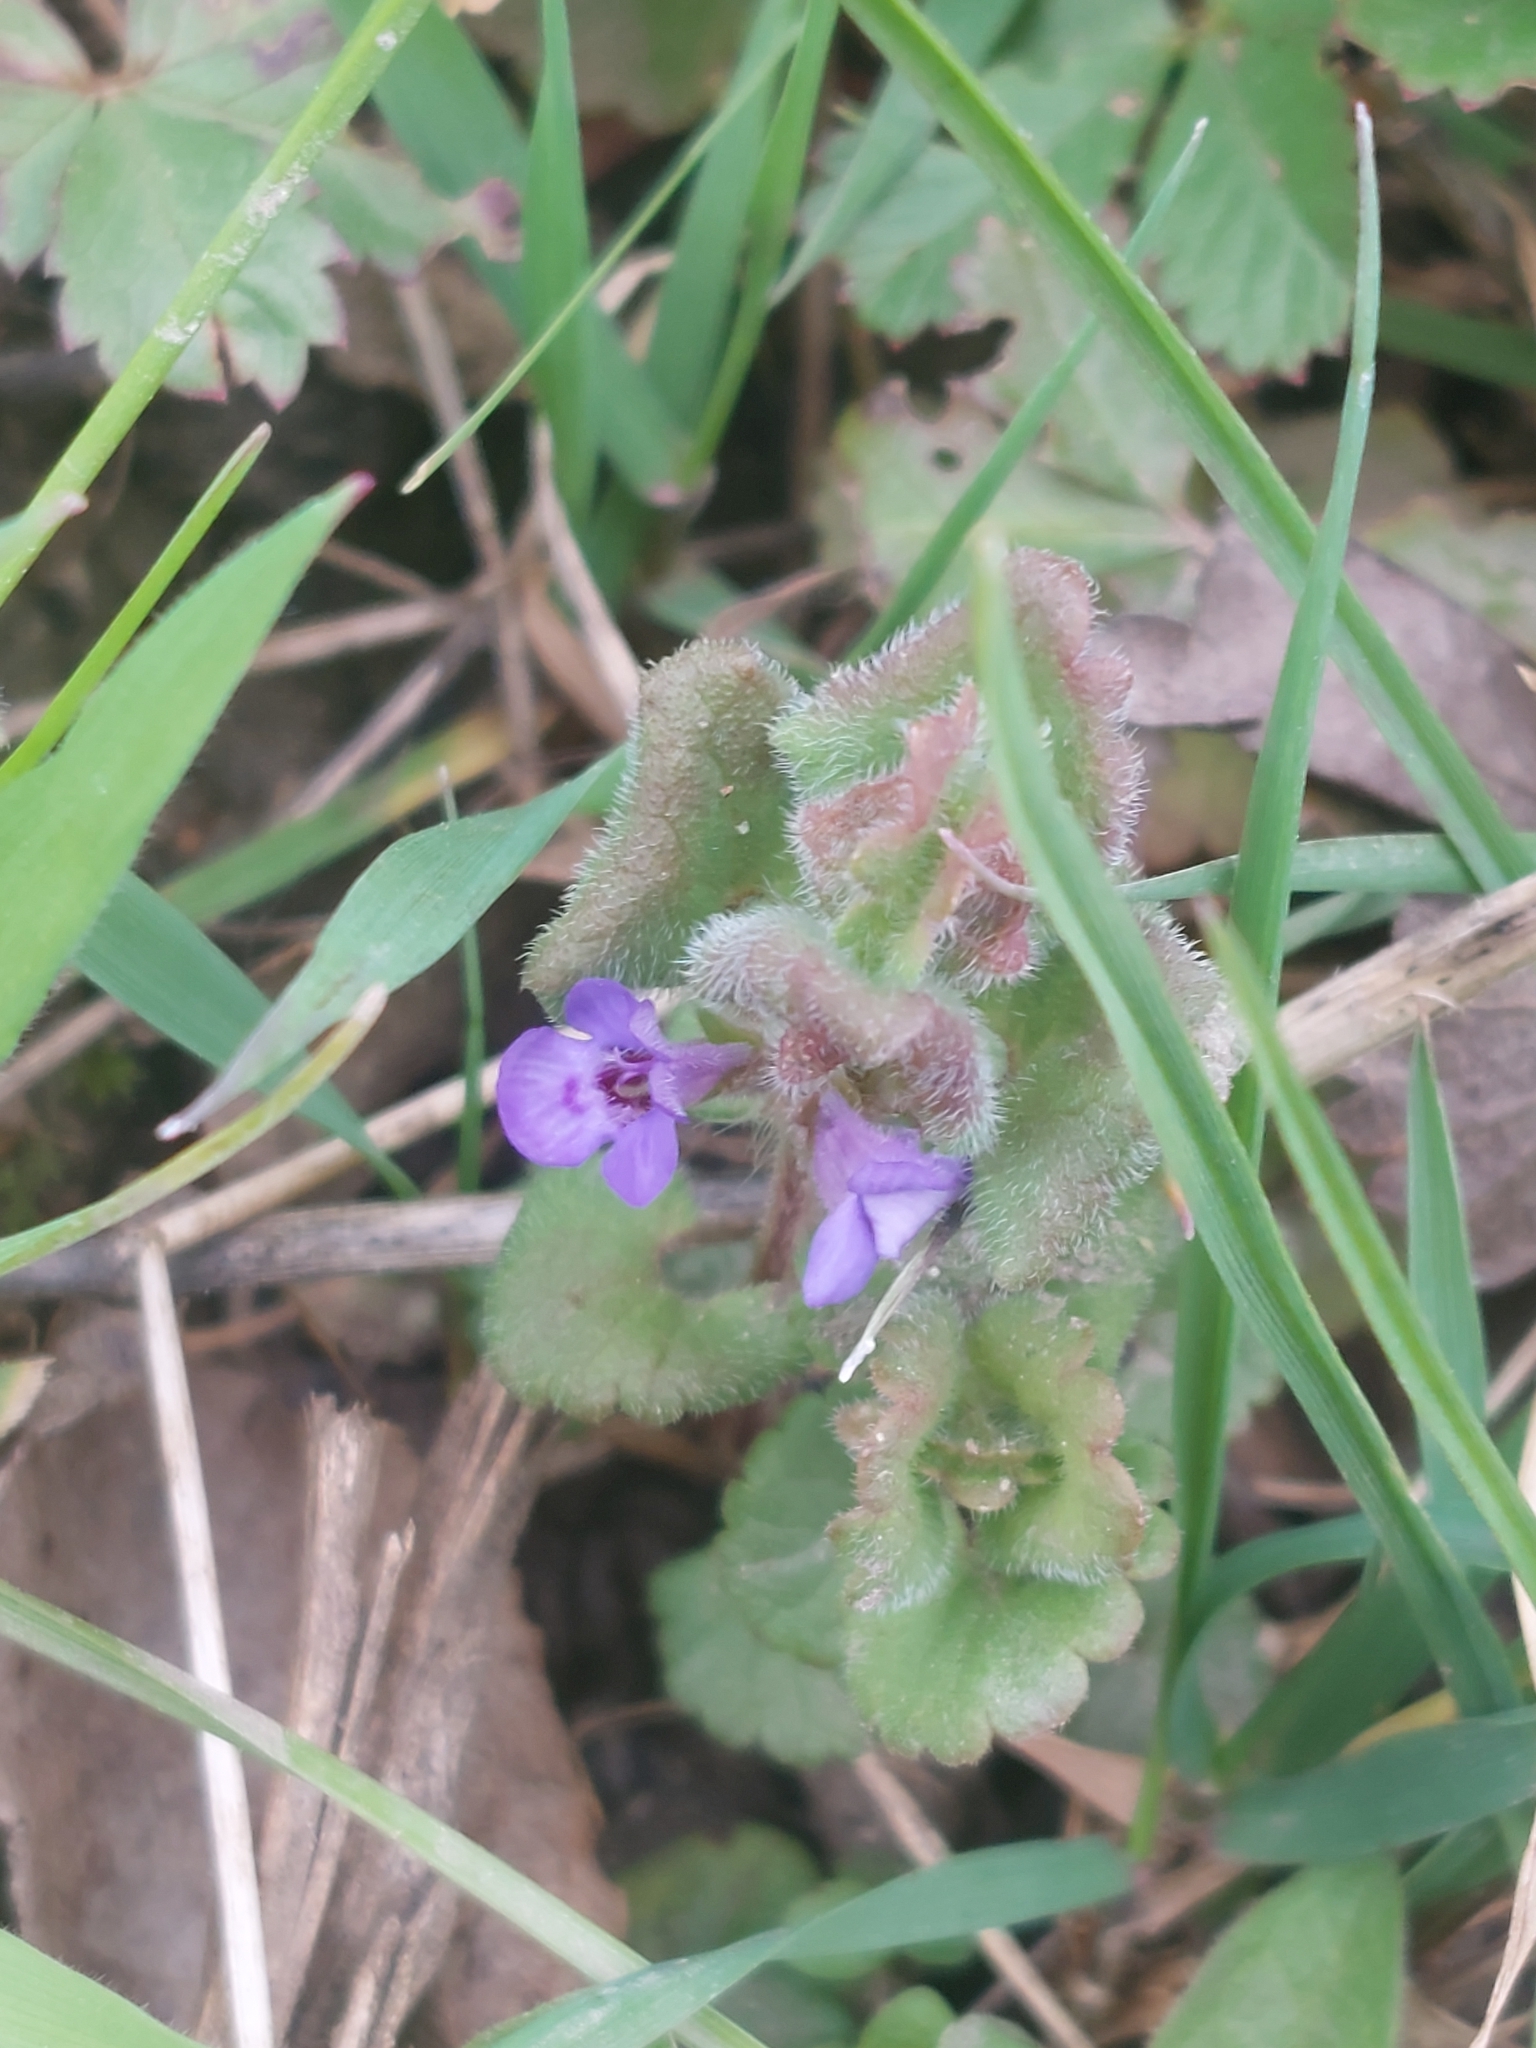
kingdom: Plantae
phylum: Tracheophyta
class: Magnoliopsida
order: Lamiales
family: Lamiaceae
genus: Glechoma
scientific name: Glechoma hederacea
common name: Ground ivy
